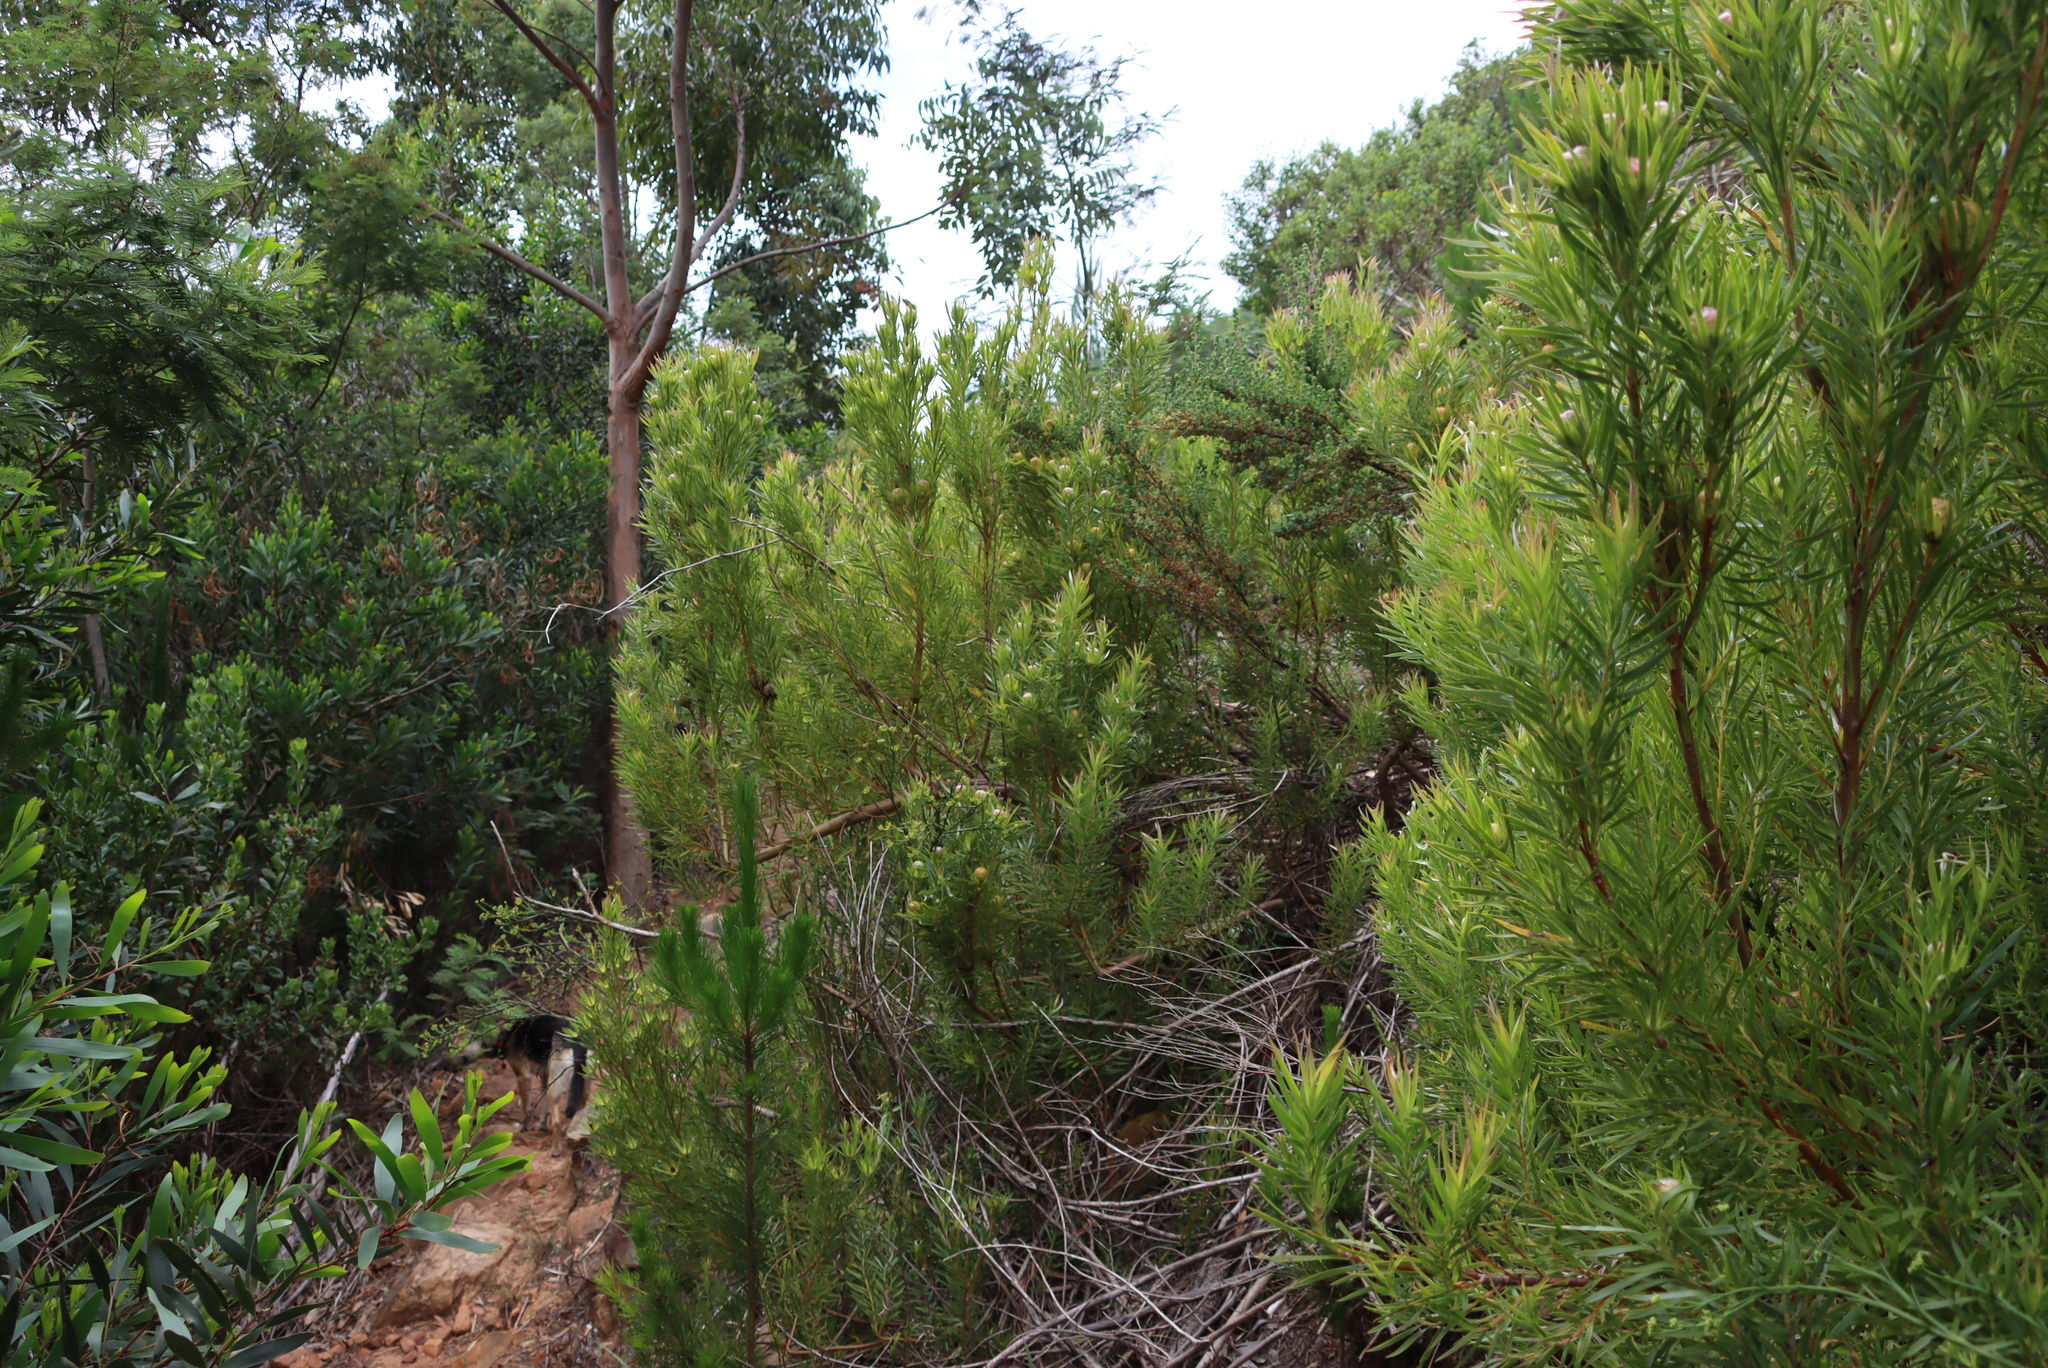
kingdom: Plantae
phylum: Tracheophyta
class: Magnoliopsida
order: Proteales
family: Proteaceae
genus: Leucadendron
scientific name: Leucadendron xanthoconus
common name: Sickle-leaf conebush
